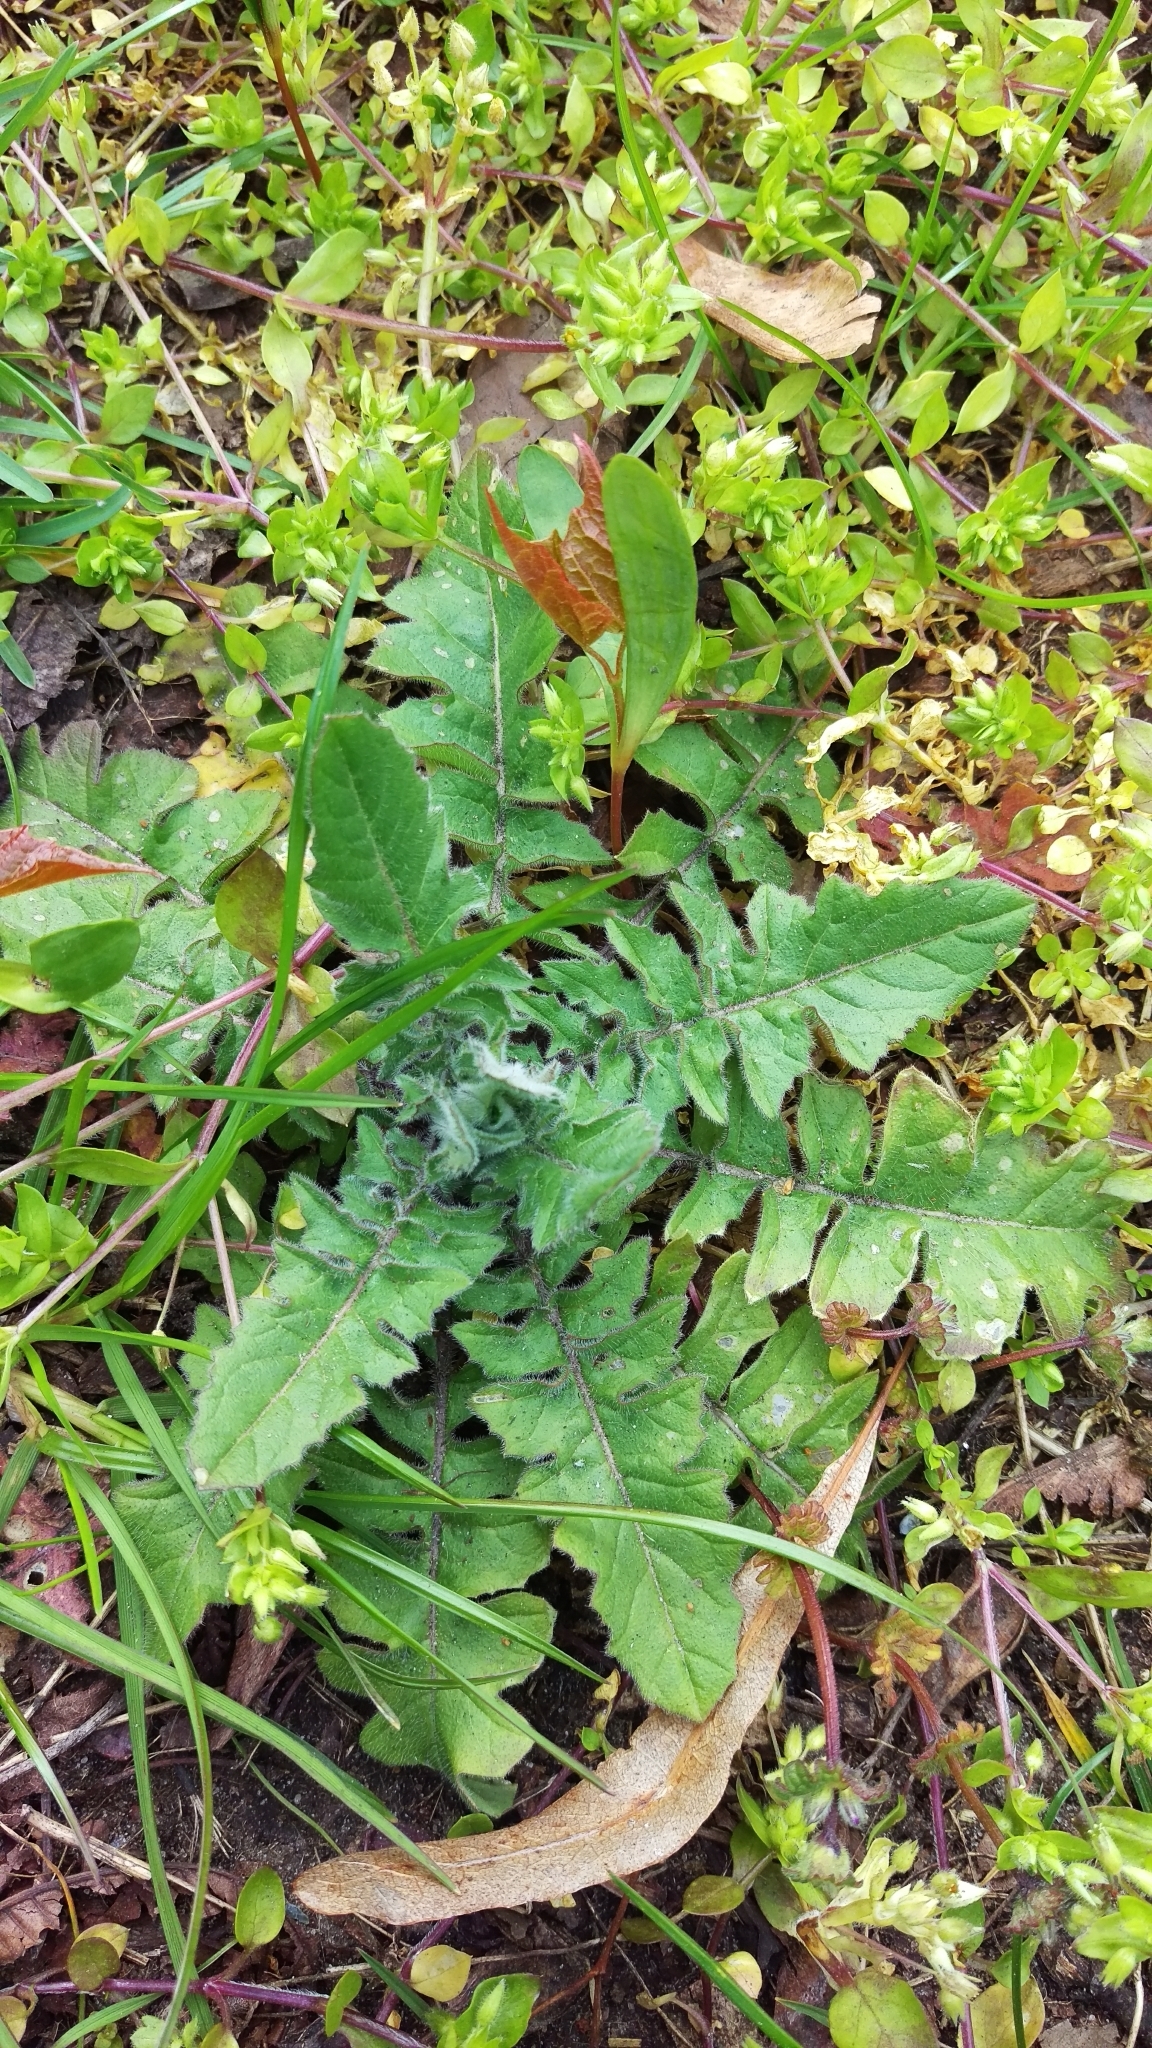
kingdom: Plantae
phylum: Tracheophyta
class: Magnoliopsida
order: Lamiales
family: Lamiaceae
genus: Lamium
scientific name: Lamium amplexicaule
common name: Henbit dead-nettle
